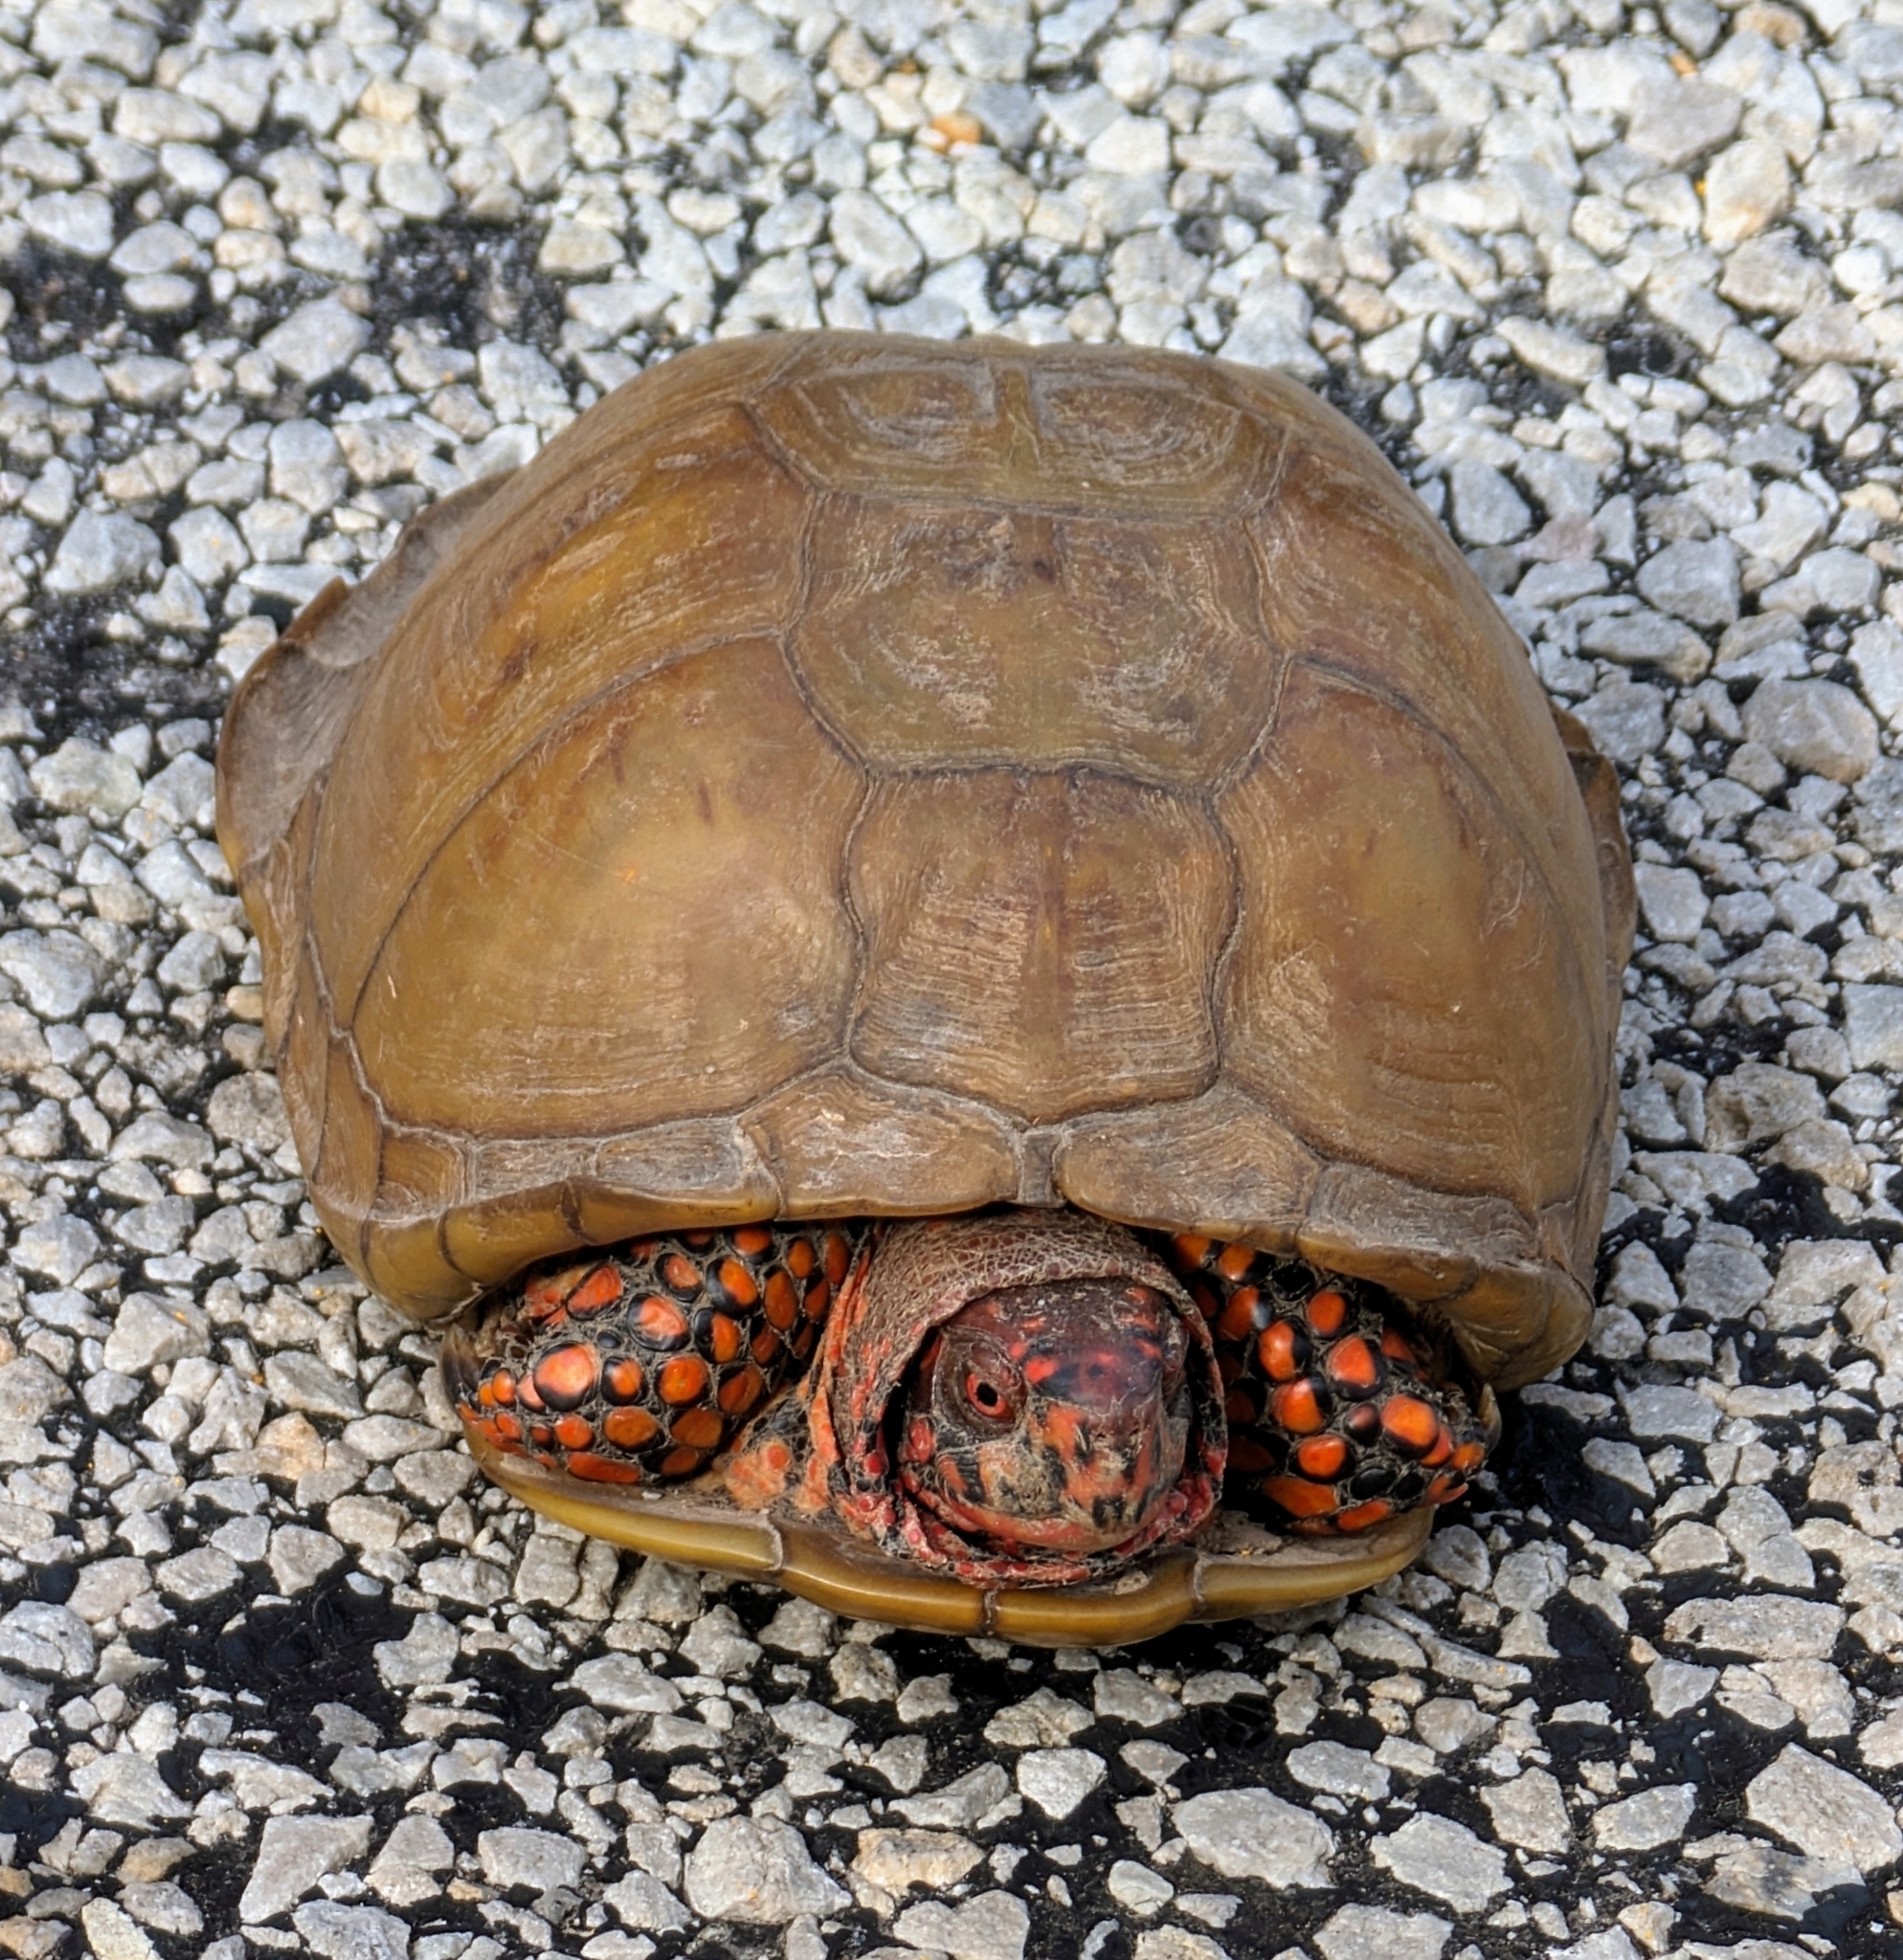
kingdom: Animalia
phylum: Chordata
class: Testudines
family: Emydidae
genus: Terrapene
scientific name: Terrapene carolina
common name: Common box turtle
